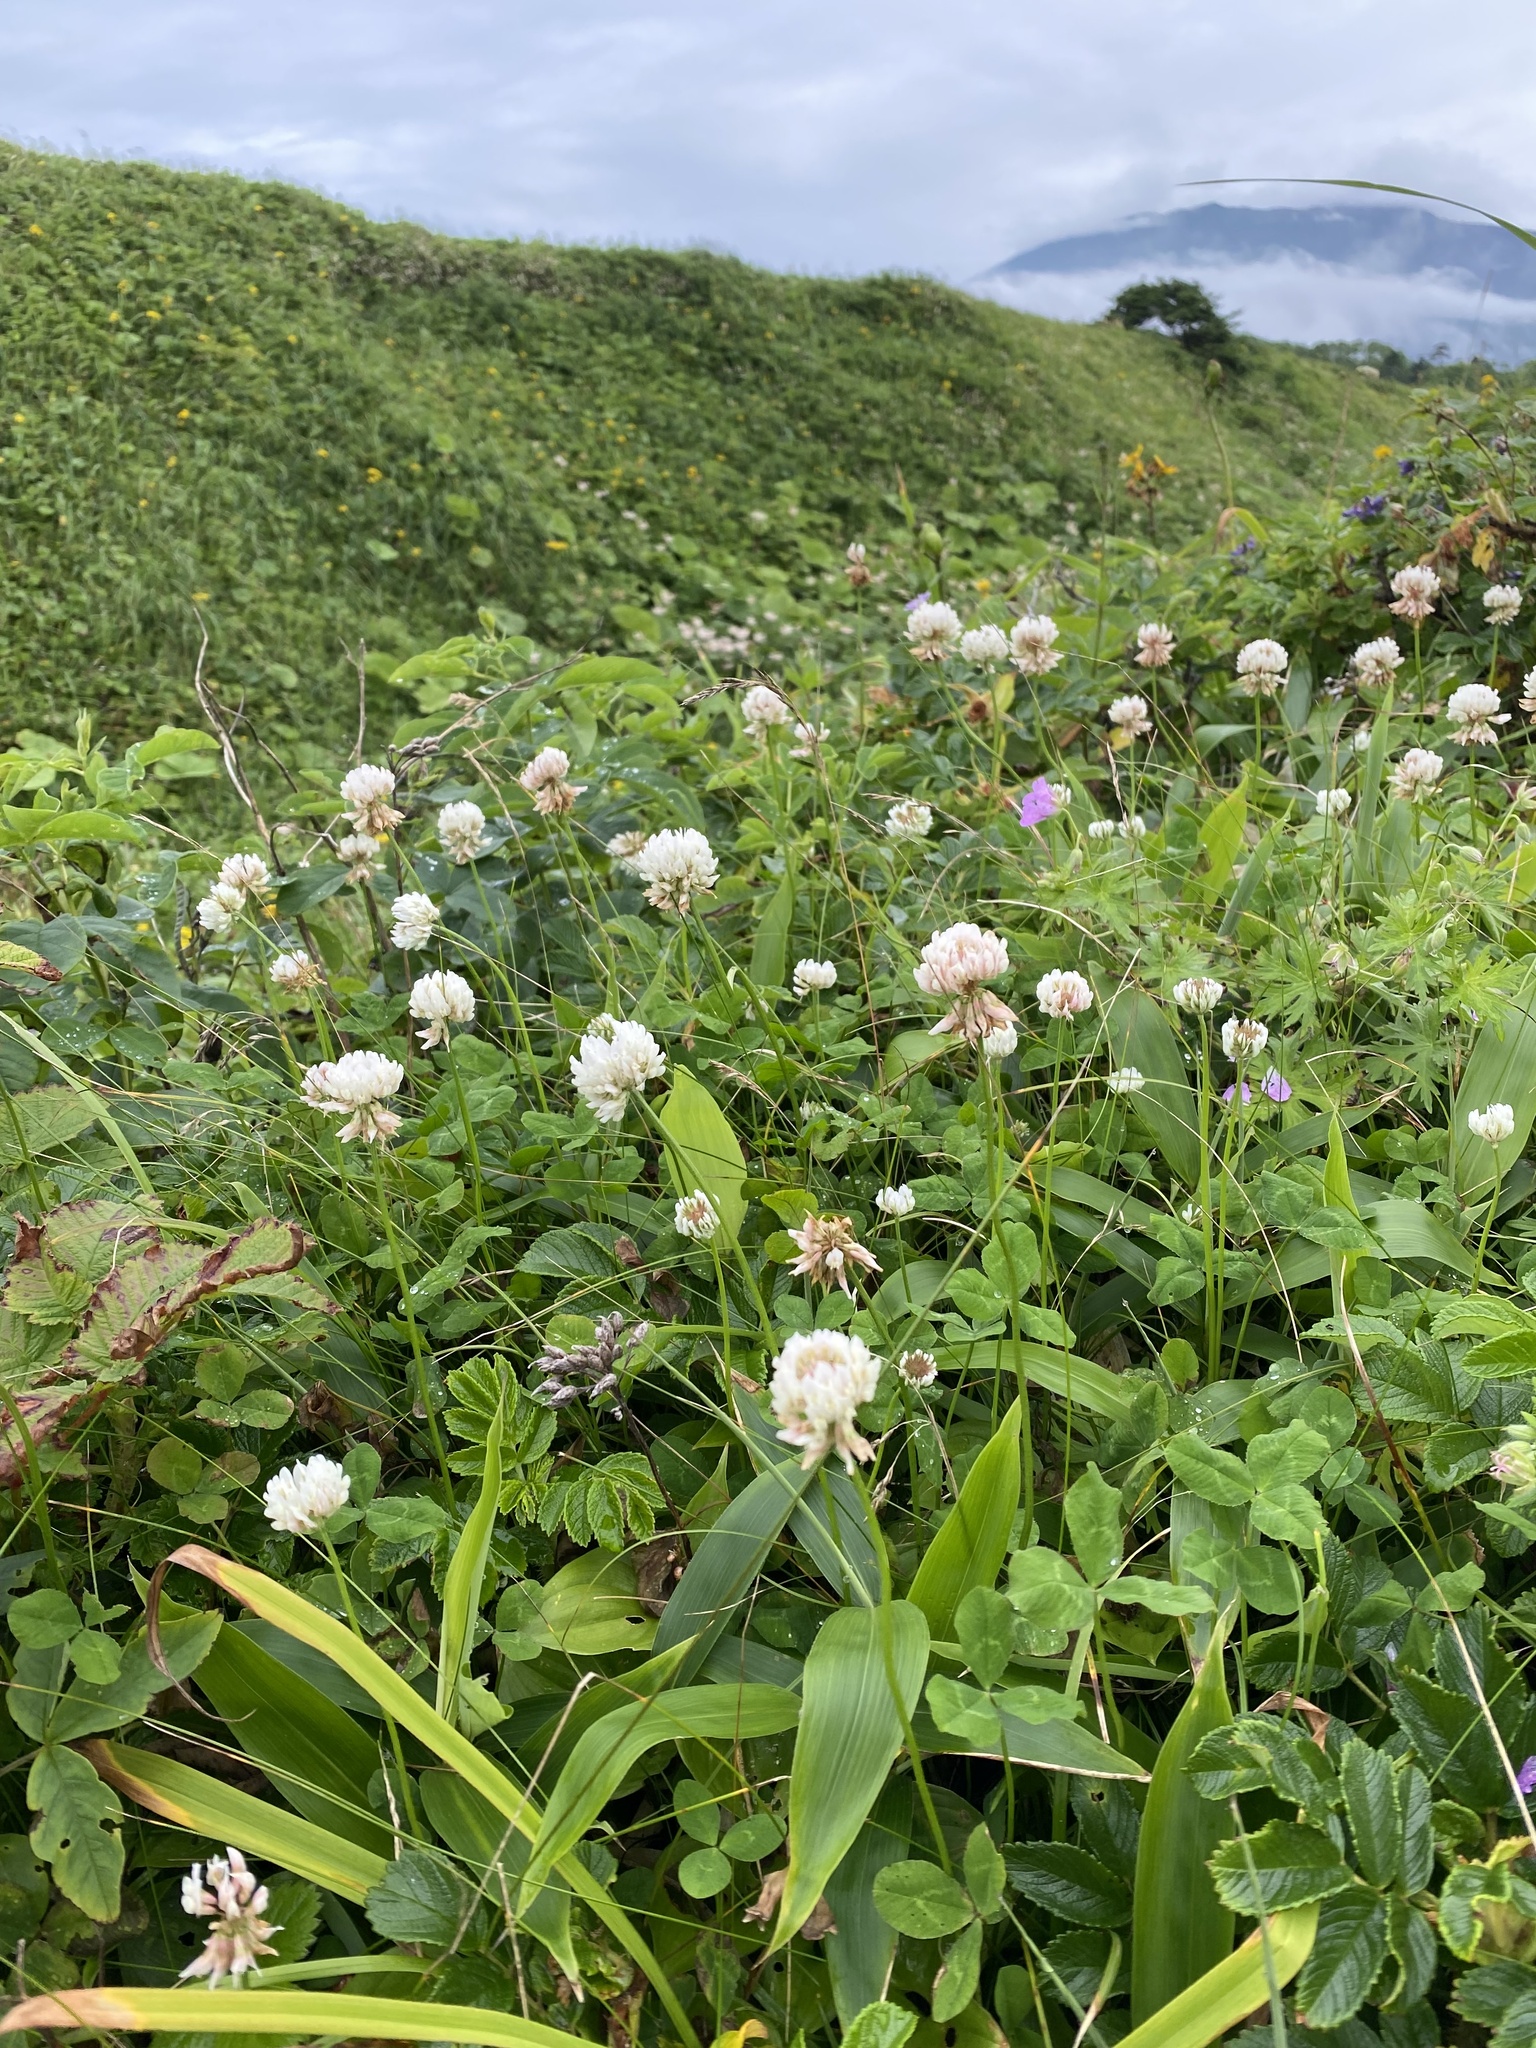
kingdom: Plantae
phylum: Tracheophyta
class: Magnoliopsida
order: Fabales
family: Fabaceae
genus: Trifolium
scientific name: Trifolium repens
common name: White clover
